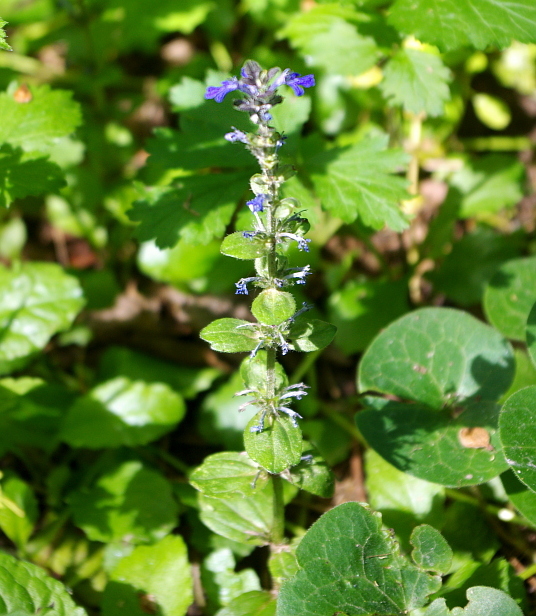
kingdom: Plantae
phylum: Tracheophyta
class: Magnoliopsida
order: Lamiales
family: Lamiaceae
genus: Ajuga
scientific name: Ajuga reptans
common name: Bugle
